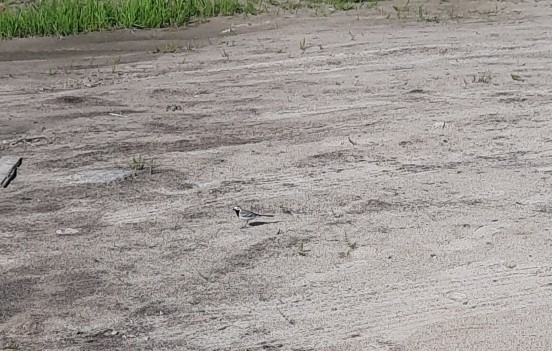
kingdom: Animalia
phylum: Chordata
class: Aves
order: Passeriformes
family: Motacillidae
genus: Motacilla
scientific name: Motacilla alba
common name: White wagtail
